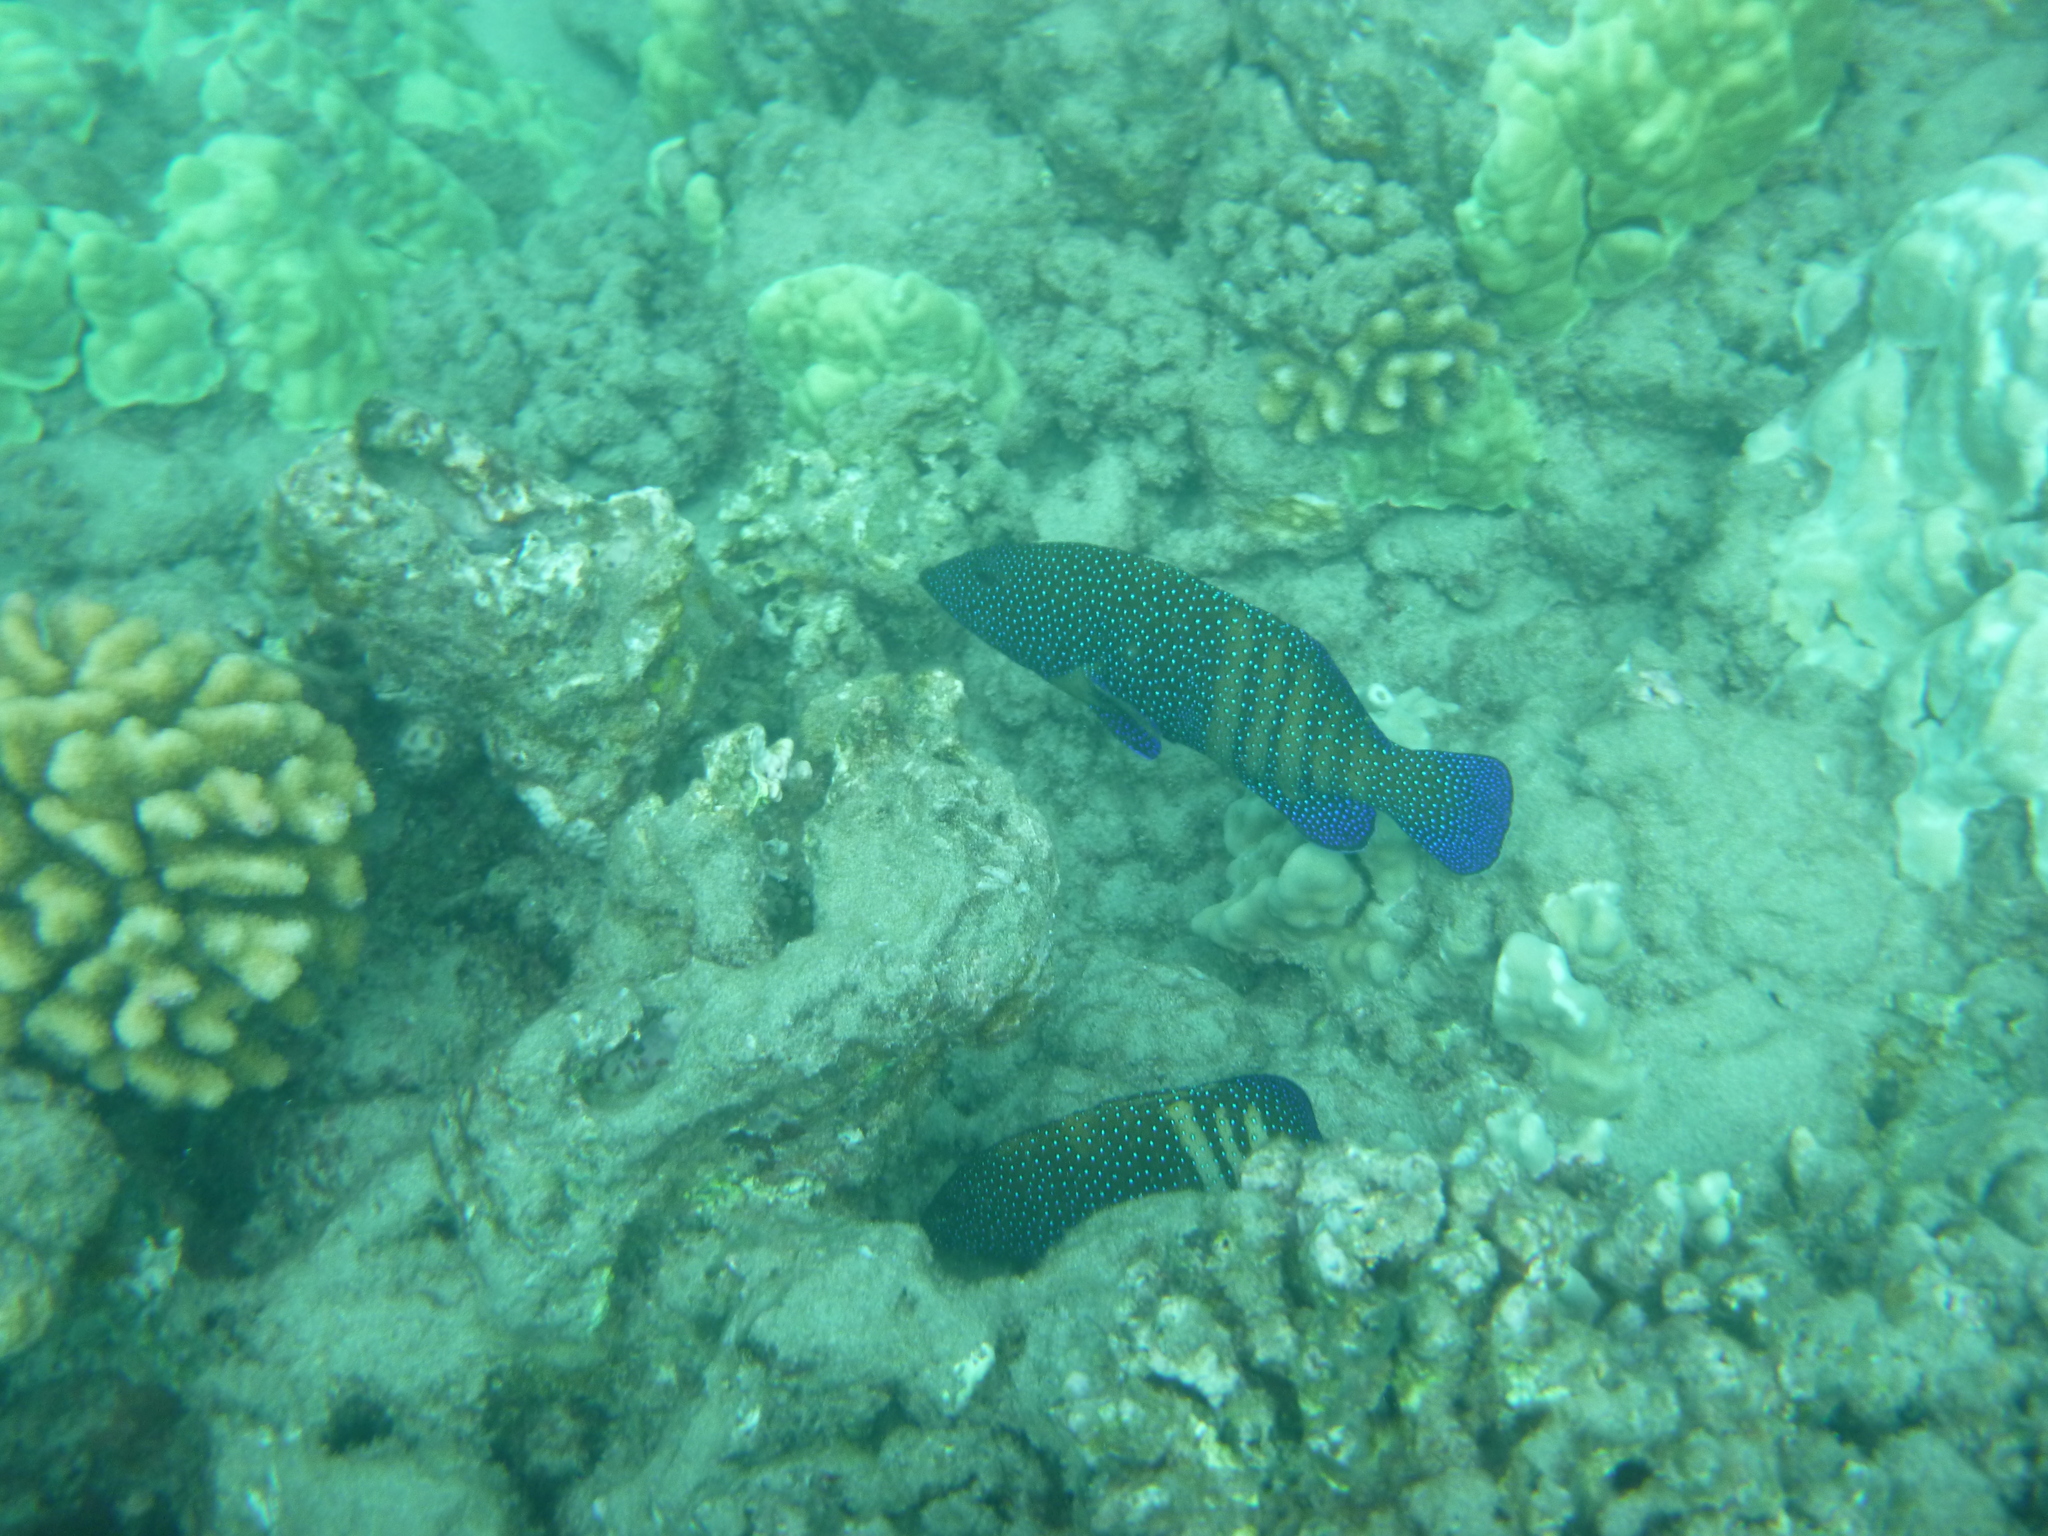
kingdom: Animalia
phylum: Chordata
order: Perciformes
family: Serranidae
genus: Cephalopholis
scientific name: Cephalopholis argus
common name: Peacock grouper
